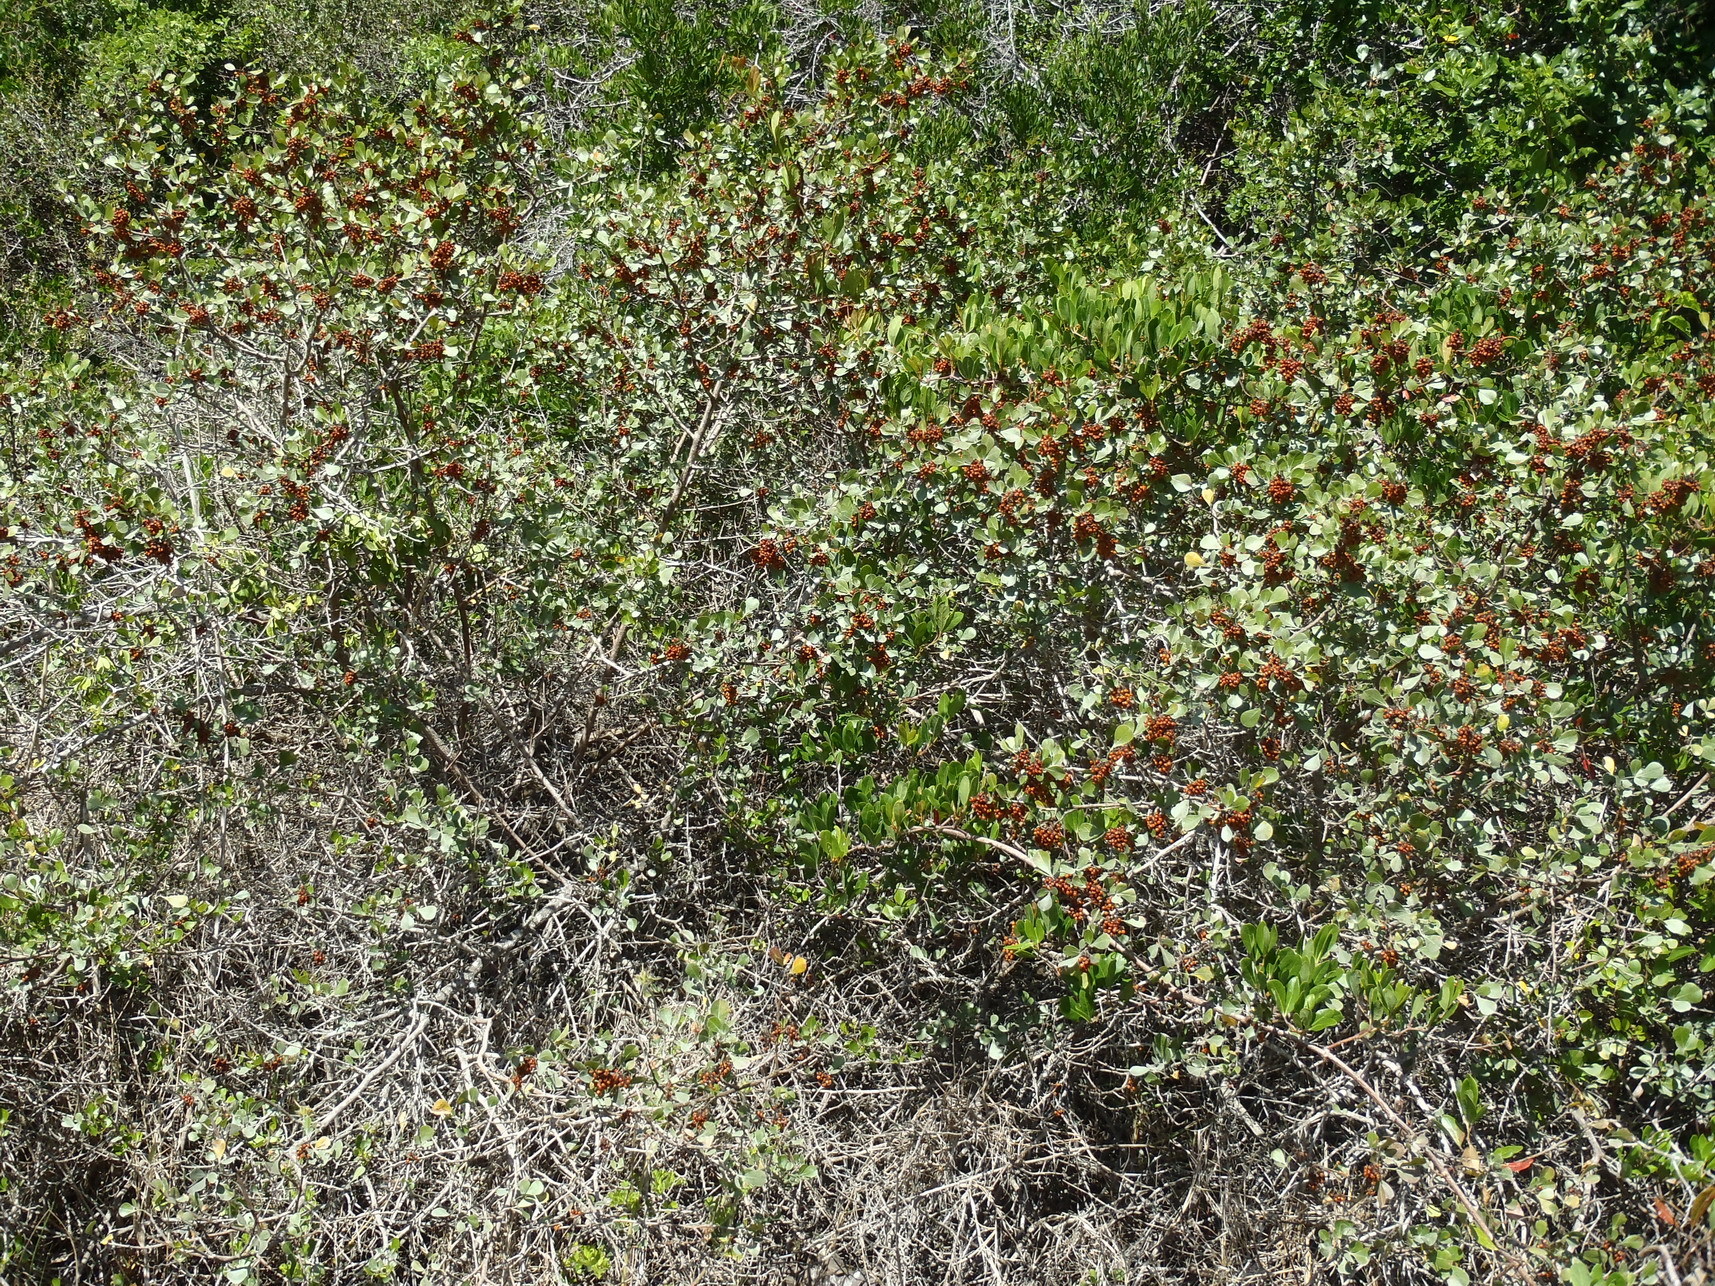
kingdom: Plantae
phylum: Tracheophyta
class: Magnoliopsida
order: Sapindales
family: Anacardiaceae
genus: Searsia
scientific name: Searsia pallens
